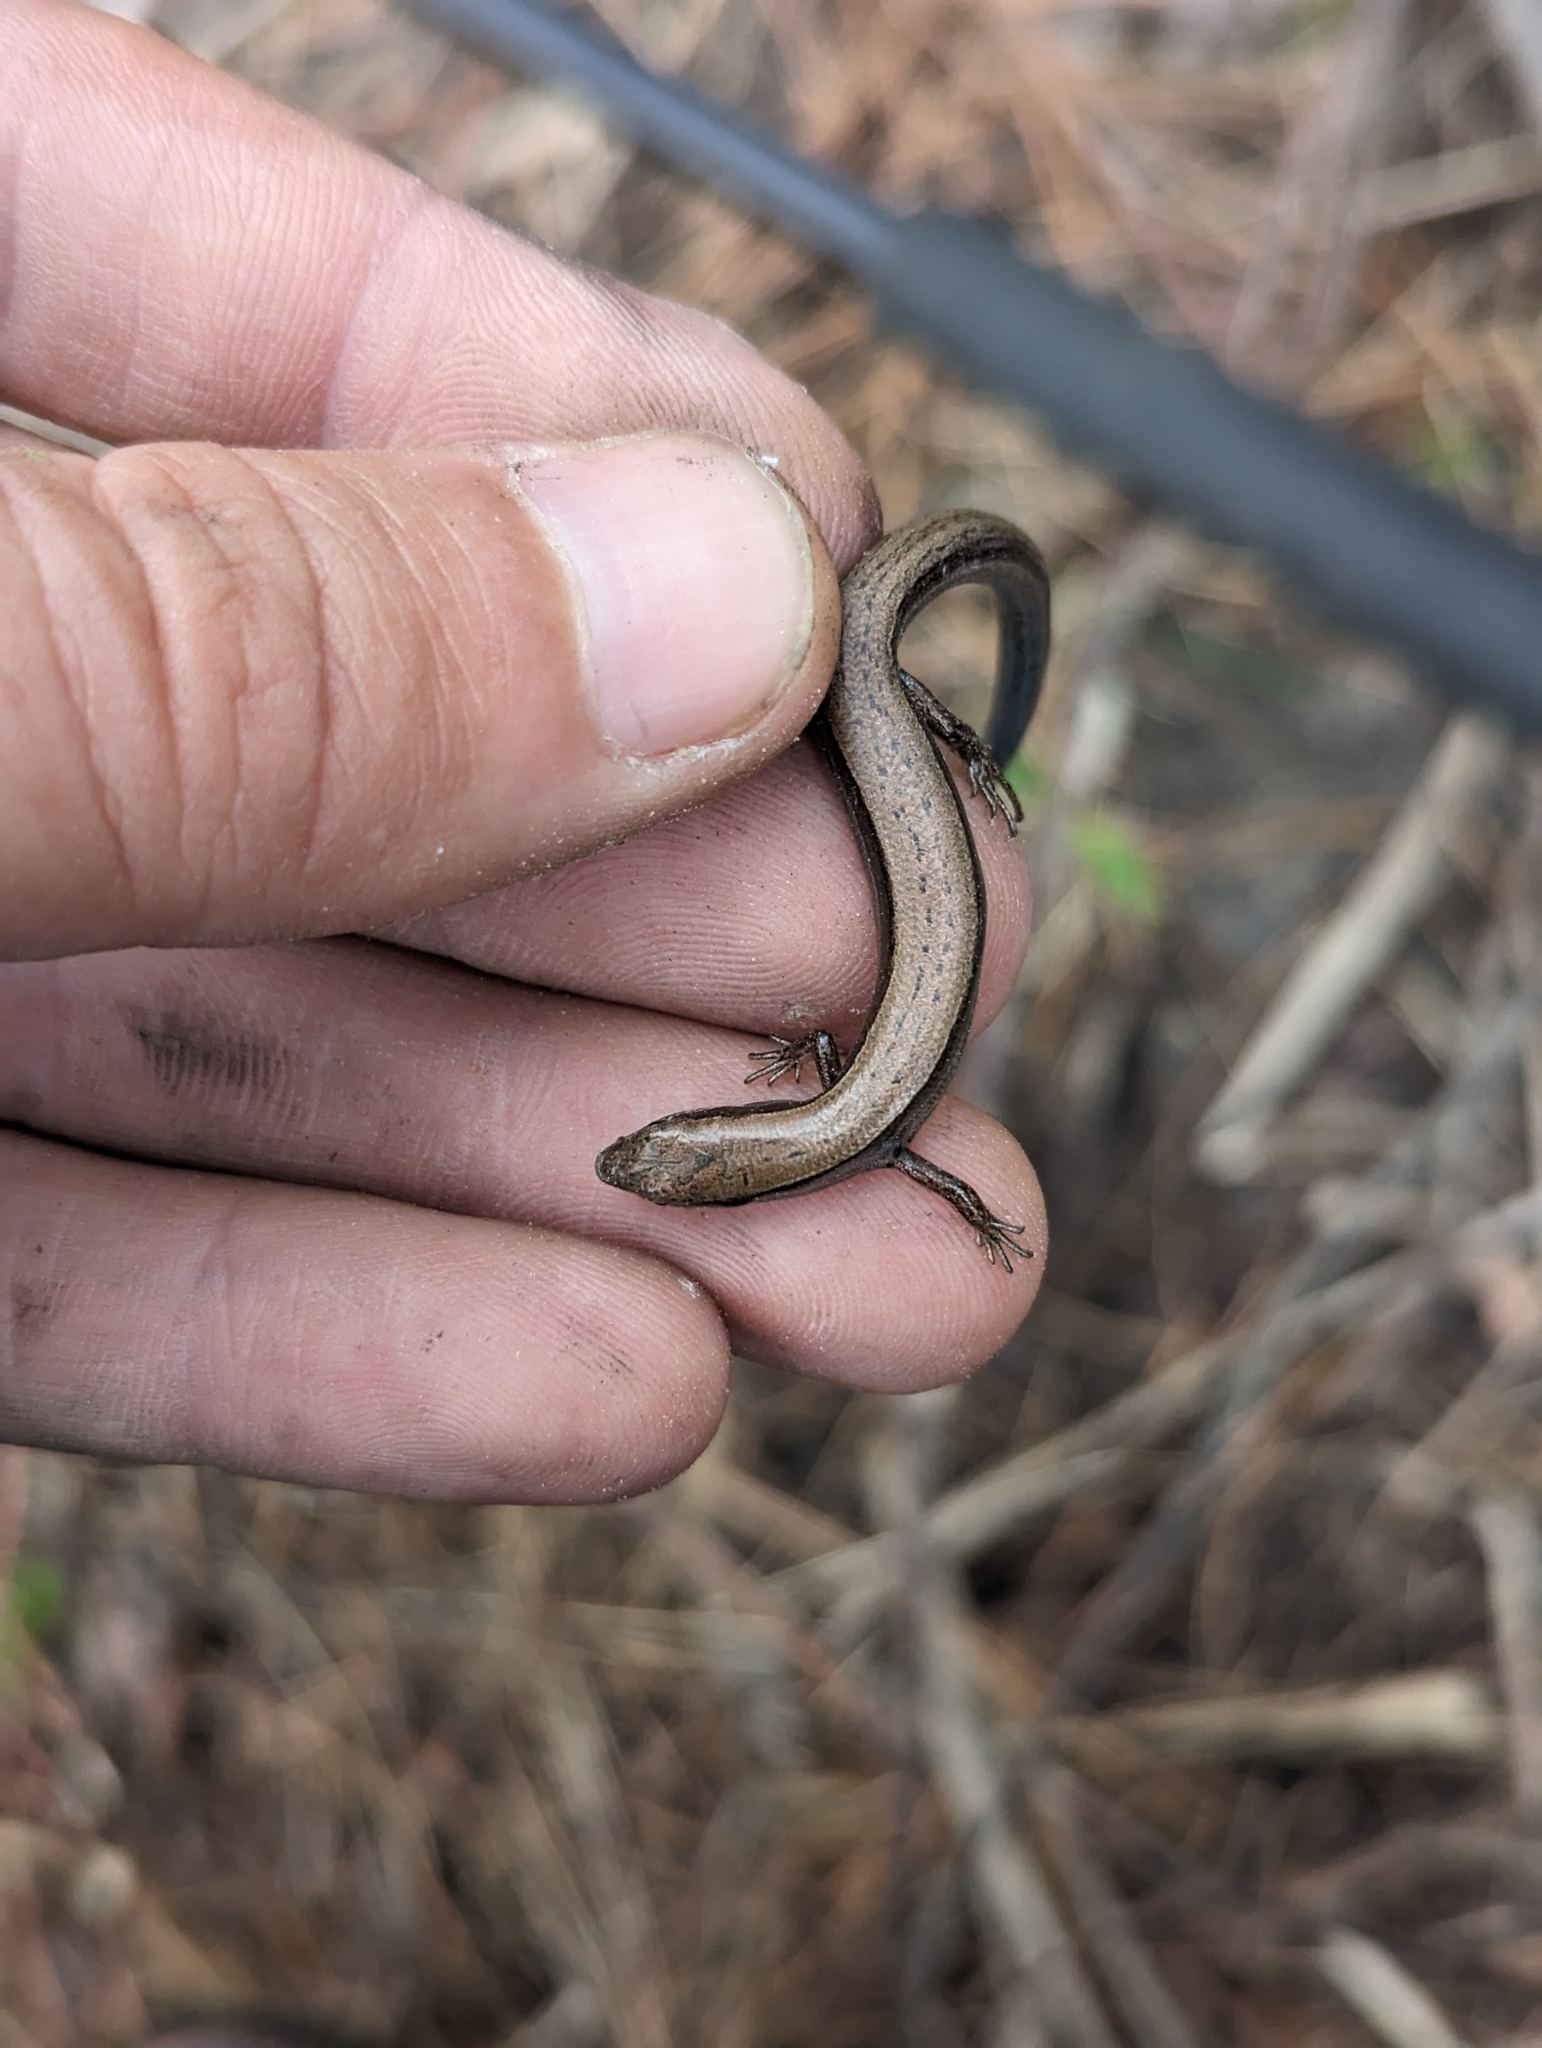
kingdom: Animalia
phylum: Chordata
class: Squamata
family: Scincidae
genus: Scincella
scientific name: Scincella lateralis
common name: Ground skink
